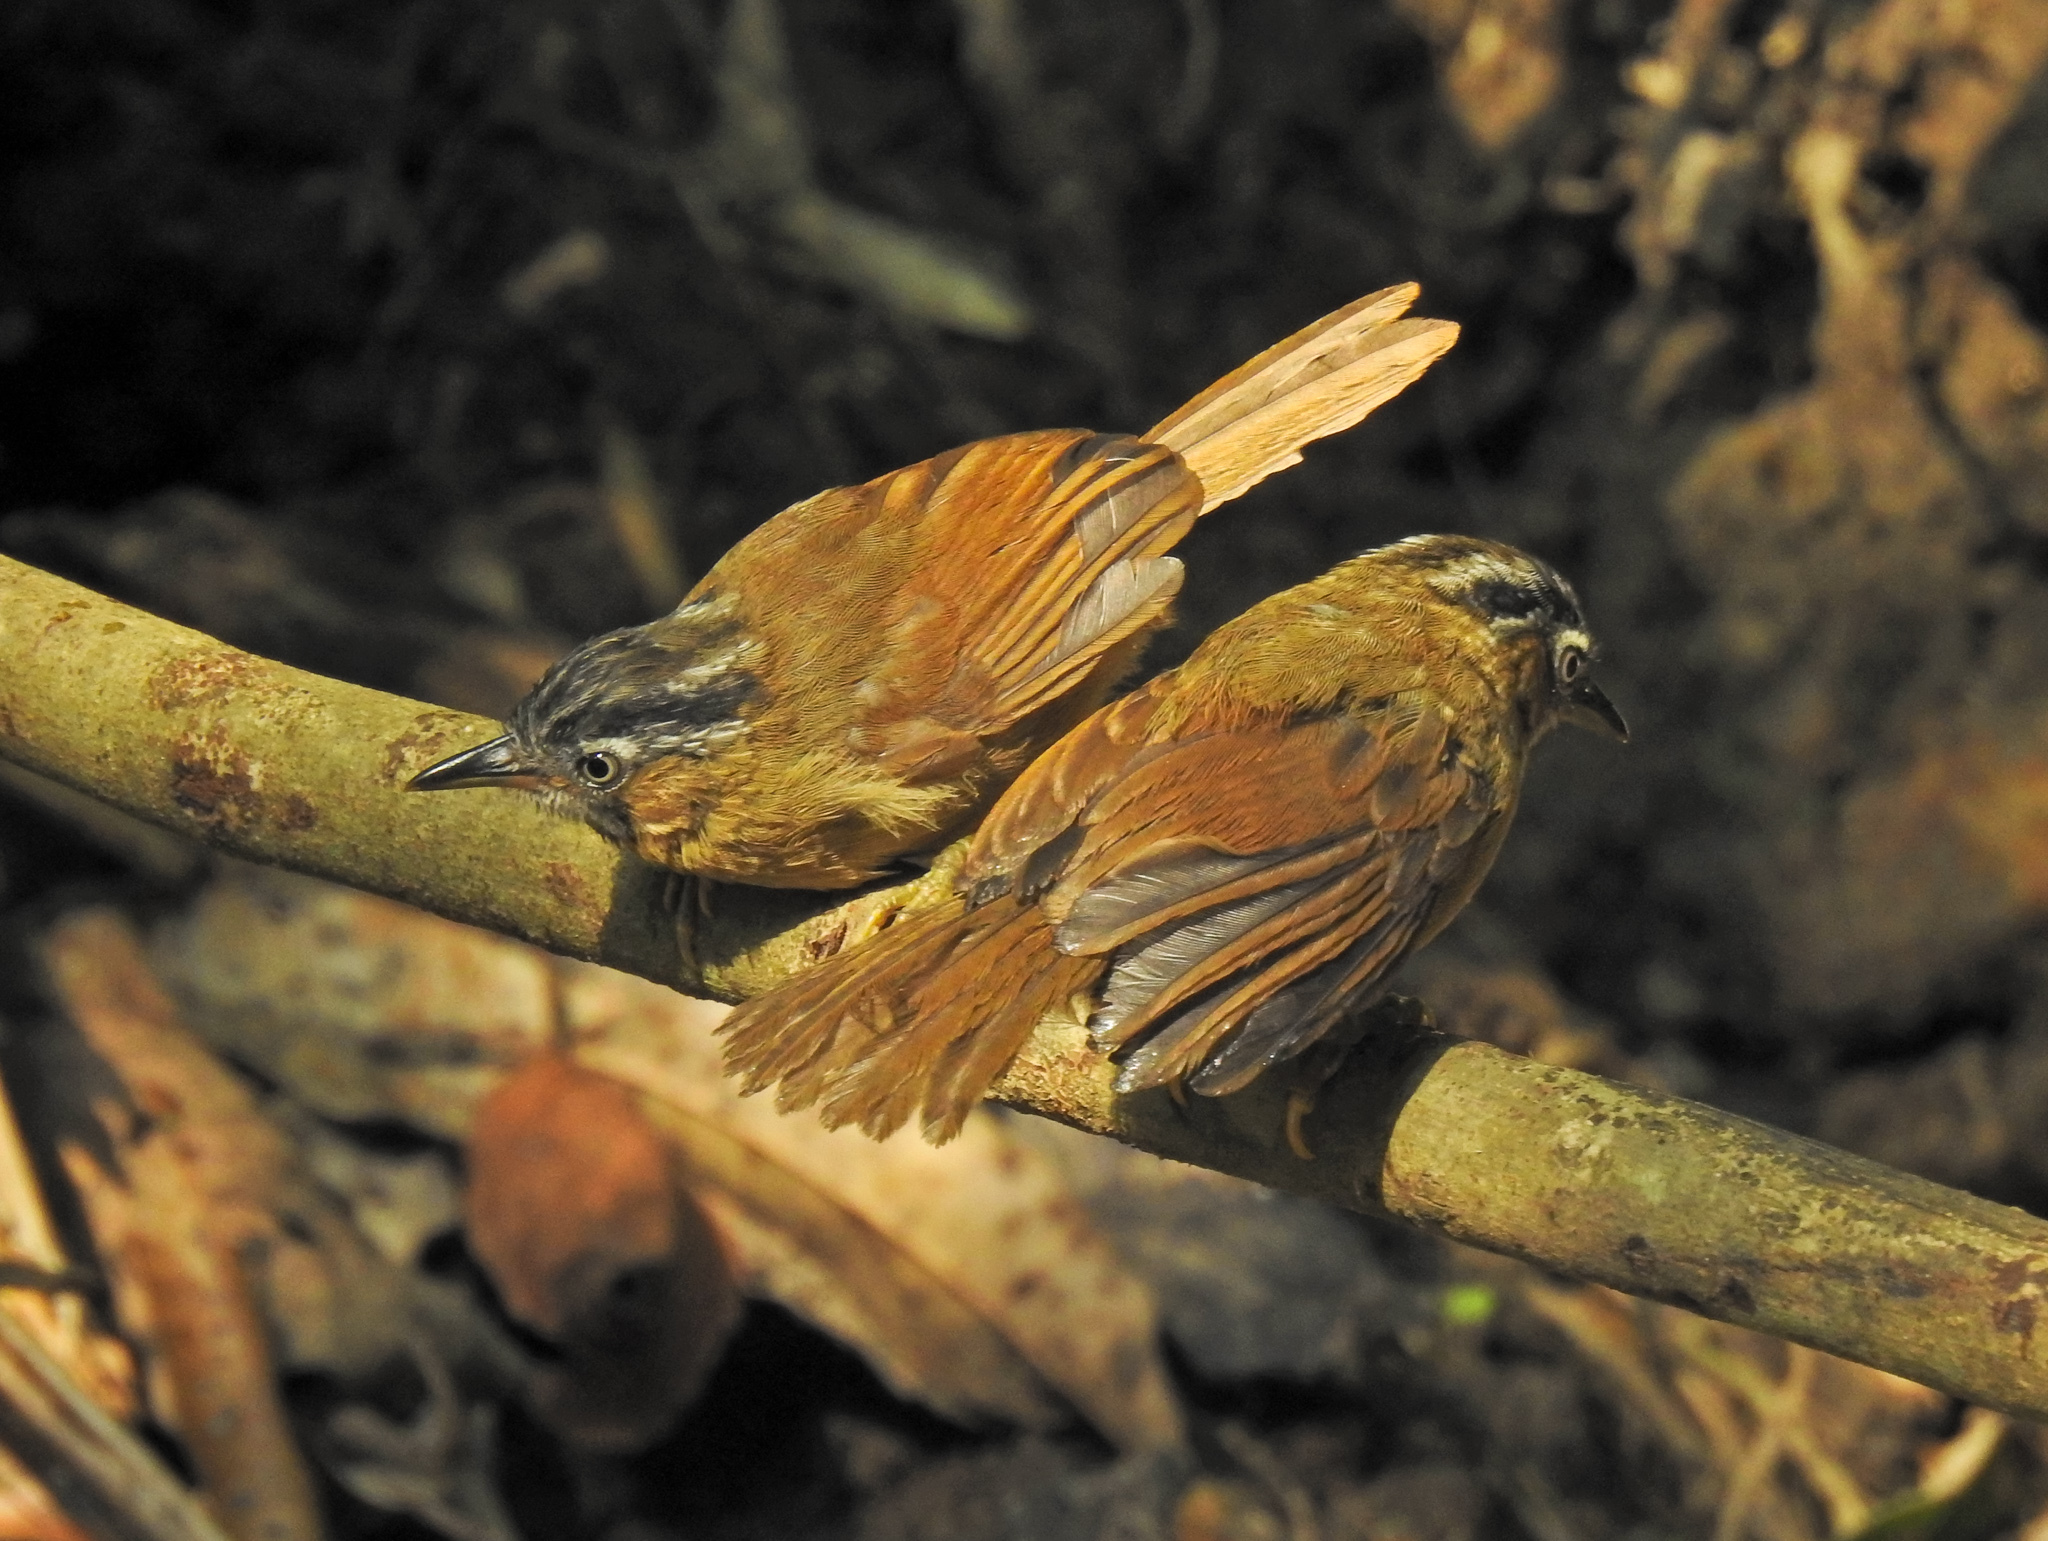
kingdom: Animalia
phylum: Chordata
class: Aves
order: Passeriformes
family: Timaliidae
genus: Stachyris
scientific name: Stachyris nigriceps
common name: Grey-throated babbler
